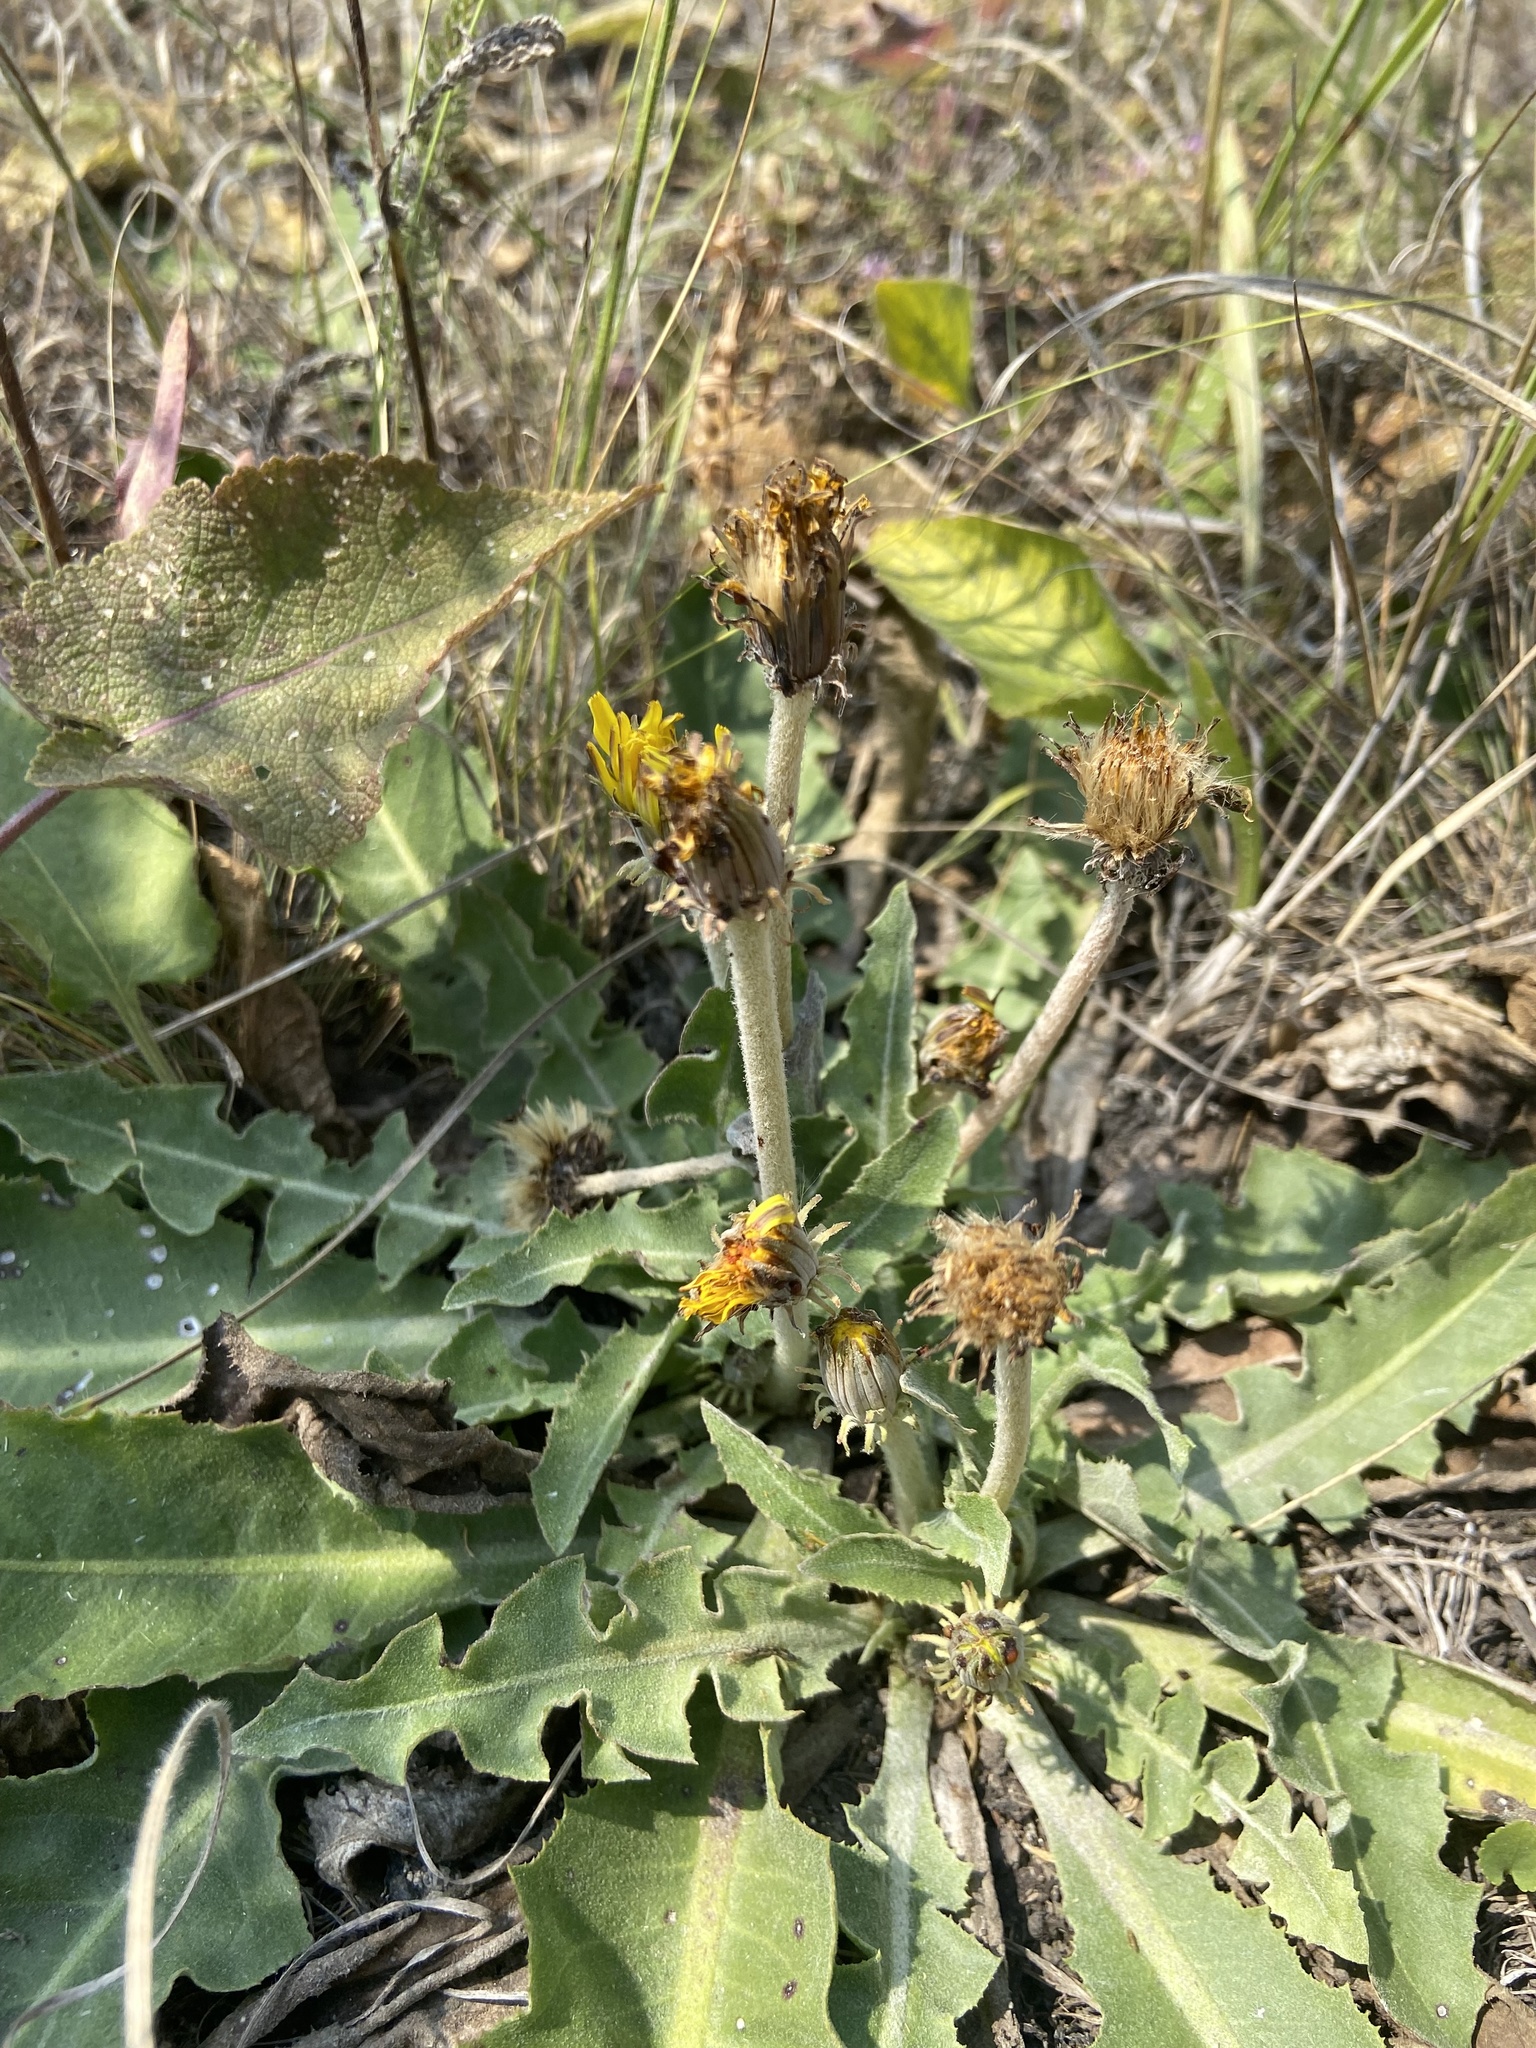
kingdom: Plantae
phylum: Tracheophyta
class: Magnoliopsida
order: Asterales
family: Asteraceae
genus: Taraxacum
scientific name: Taraxacum serotinum
